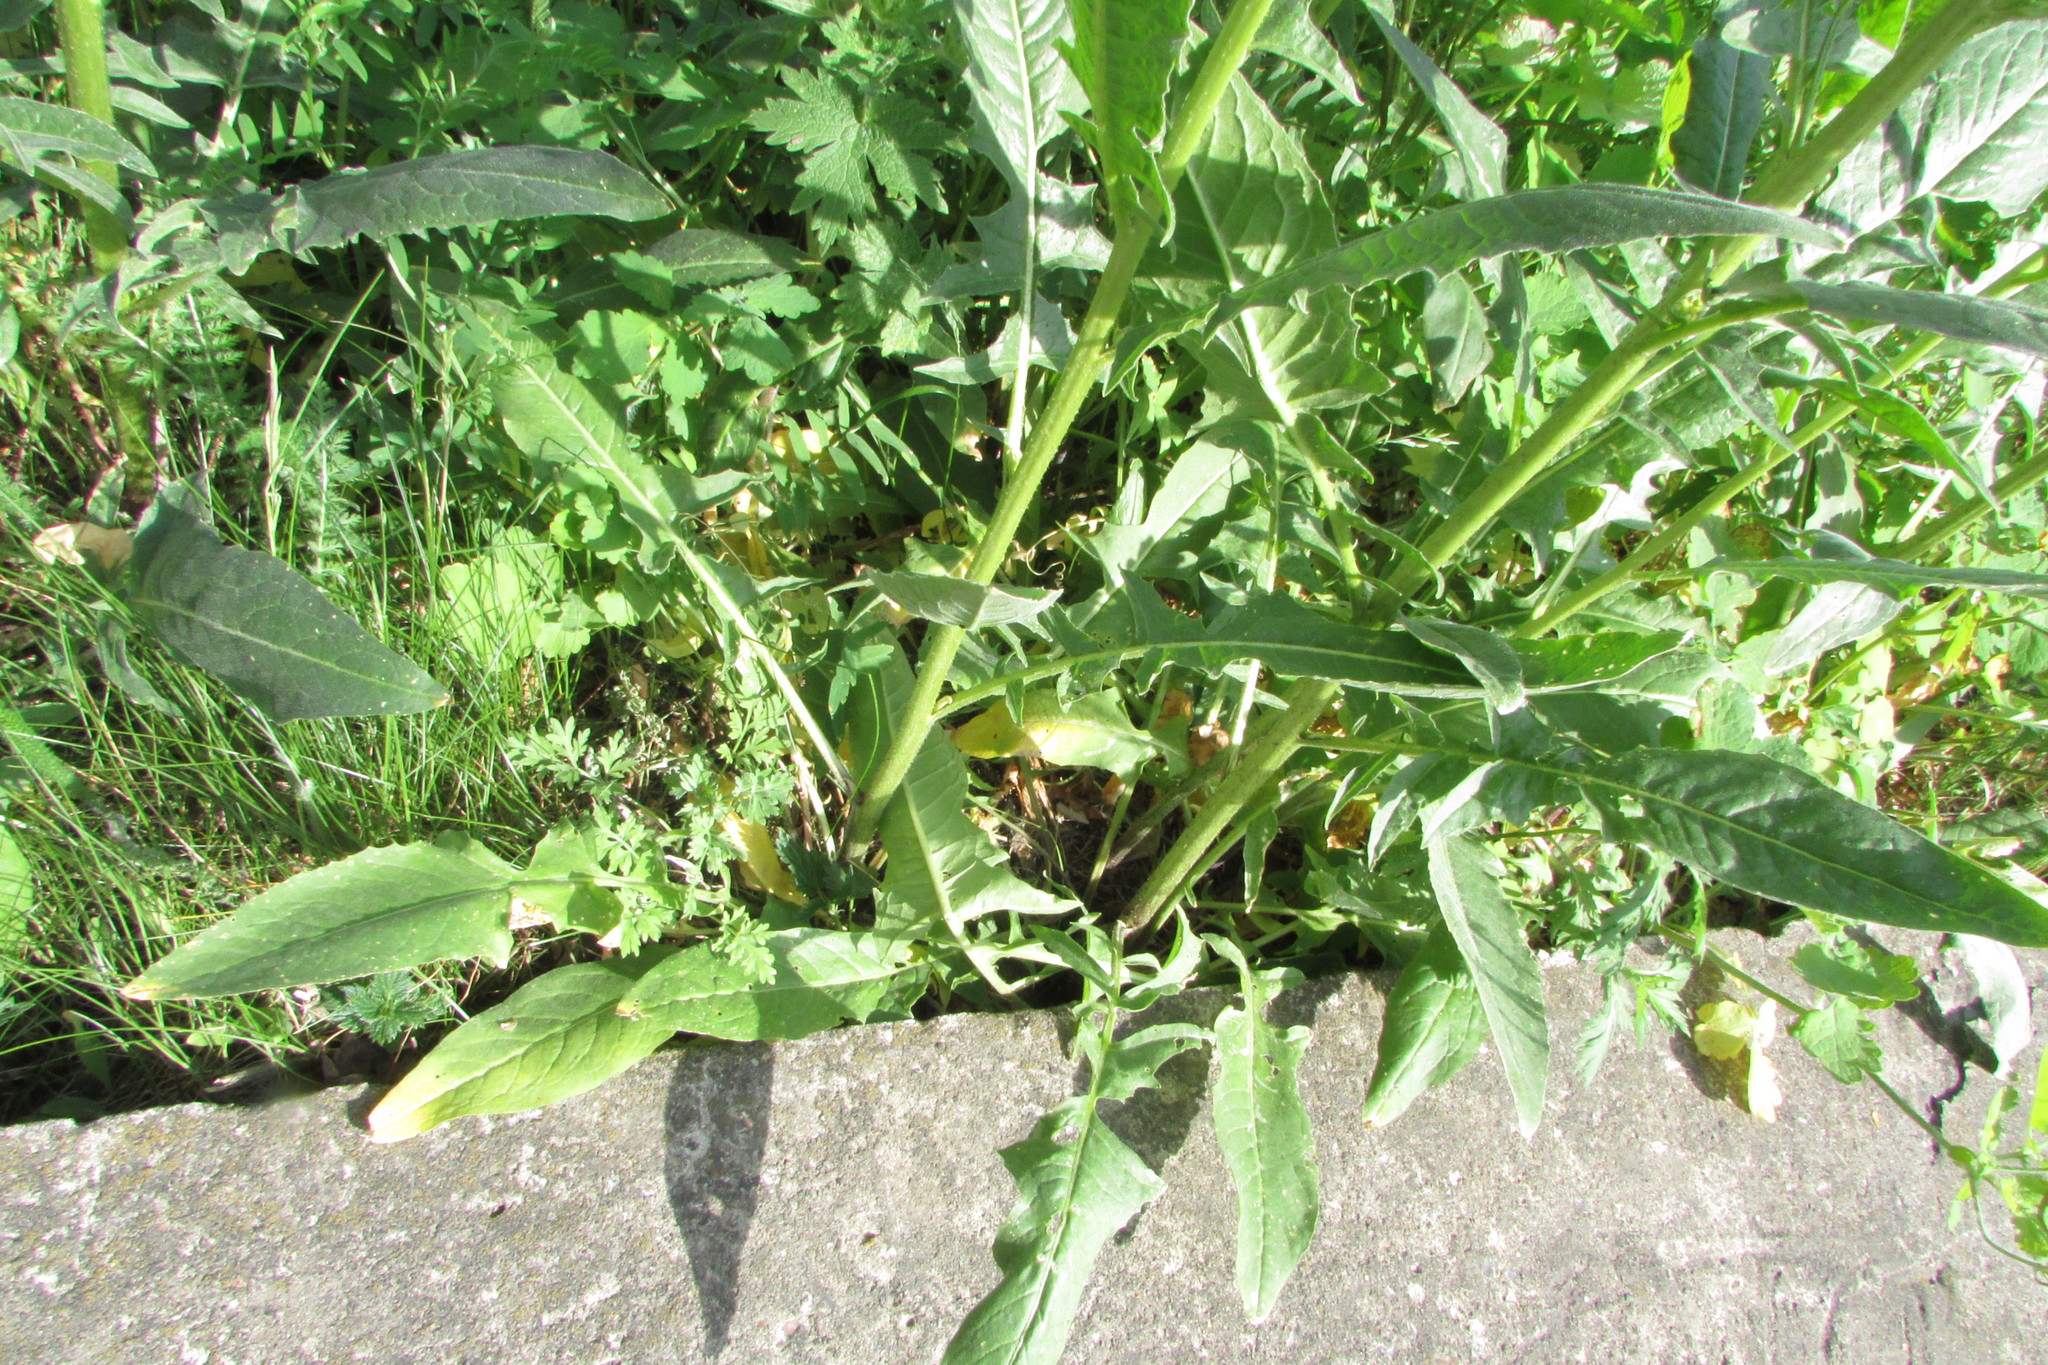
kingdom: Plantae
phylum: Tracheophyta
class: Magnoliopsida
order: Brassicales
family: Brassicaceae
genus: Bunias
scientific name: Bunias orientalis
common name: Warty-cabbage
